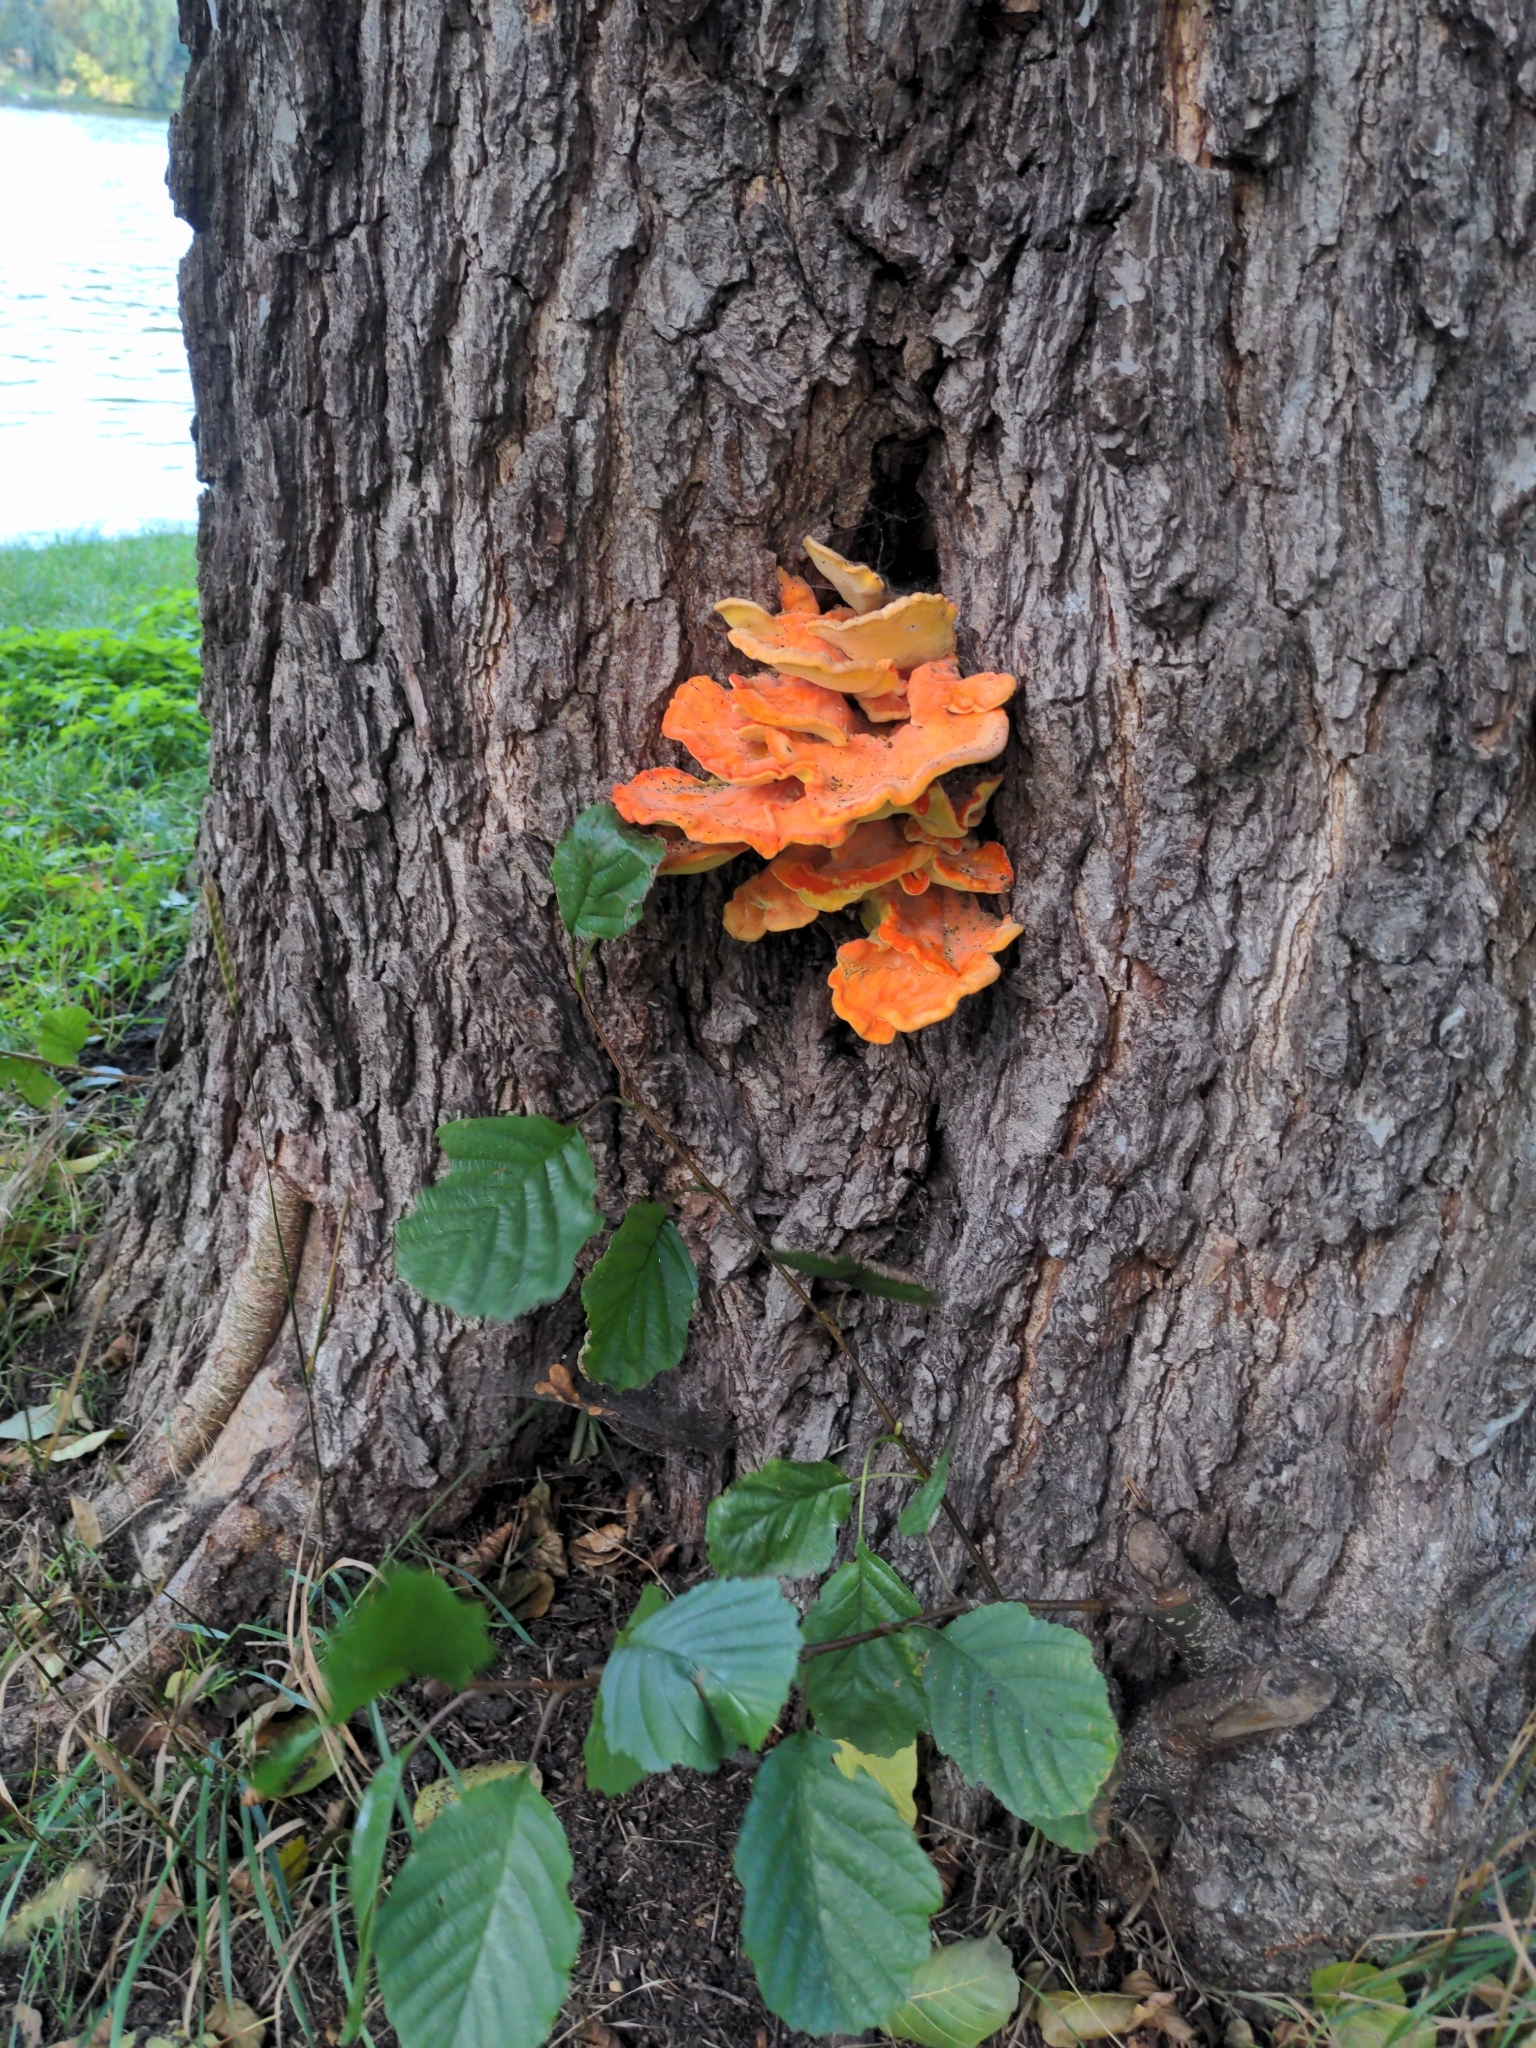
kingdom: Fungi
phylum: Basidiomycota
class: Agaricomycetes
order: Polyporales
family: Laetiporaceae
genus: Laetiporus
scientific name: Laetiporus sulphureus
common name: Chicken of the woods
